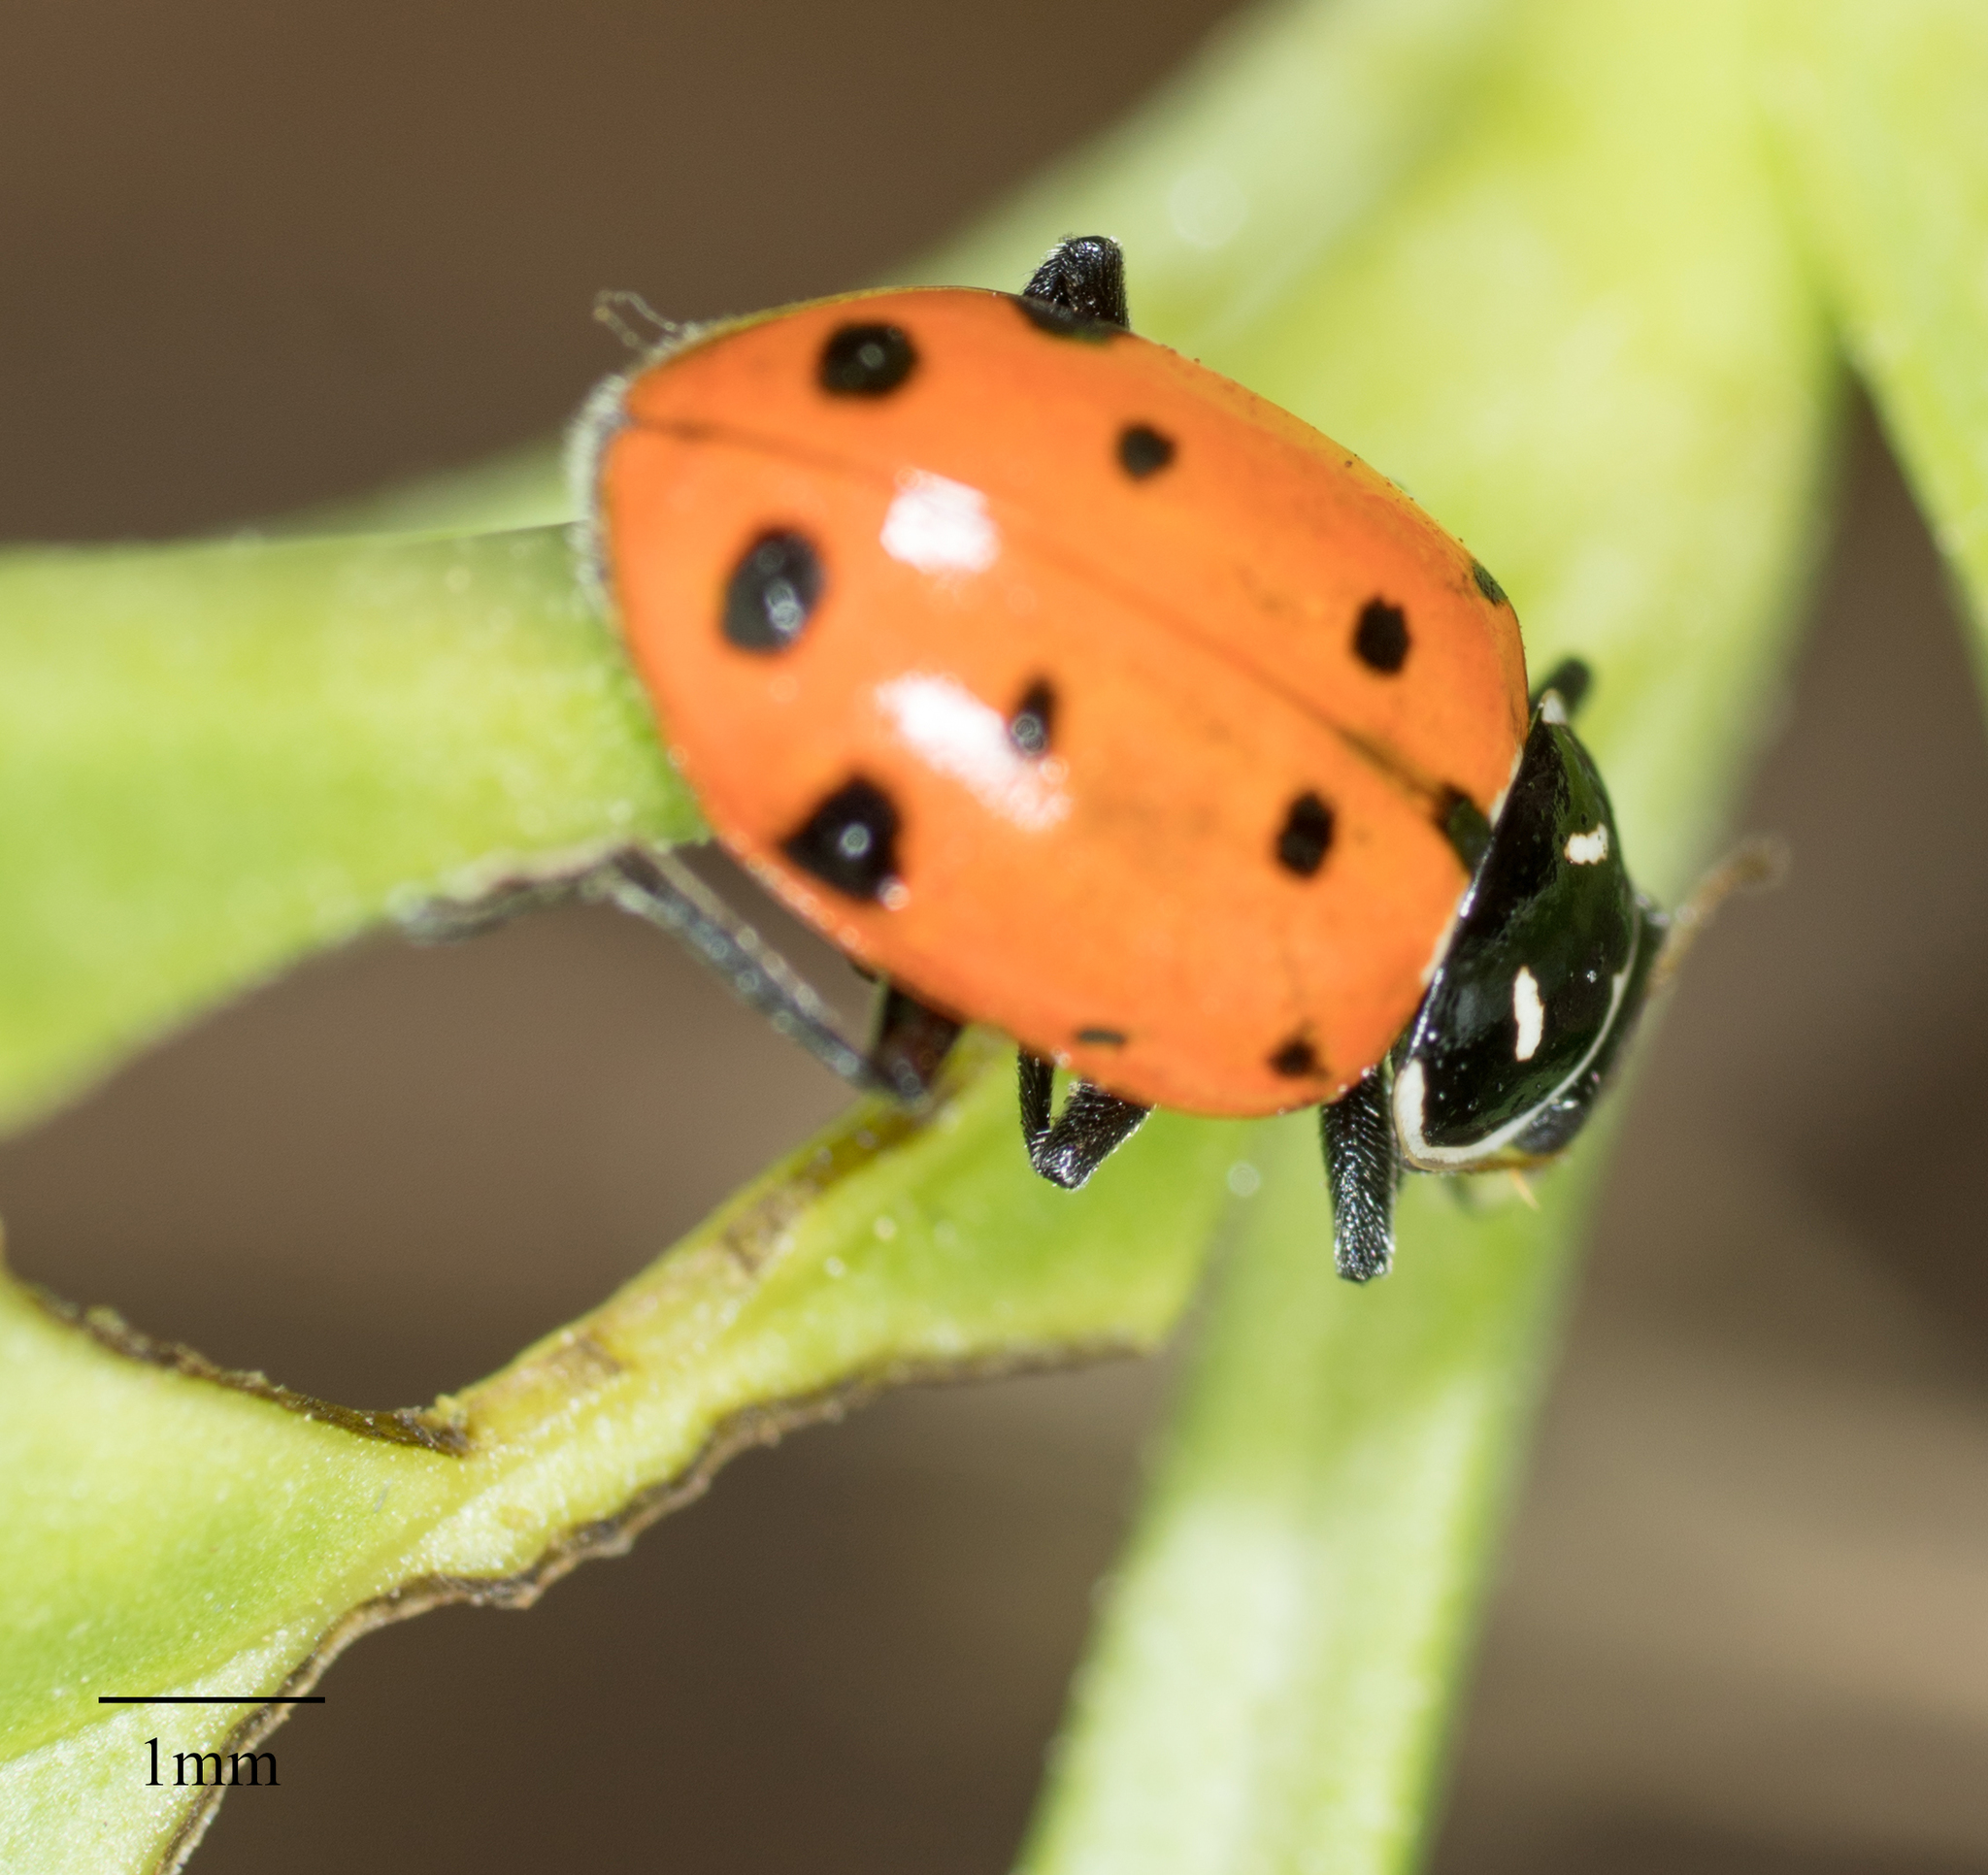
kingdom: Animalia
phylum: Arthropoda
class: Insecta
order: Coleoptera
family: Coccinellidae
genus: Hippodamia
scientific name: Hippodamia convergens
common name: Convergent lady beetle
